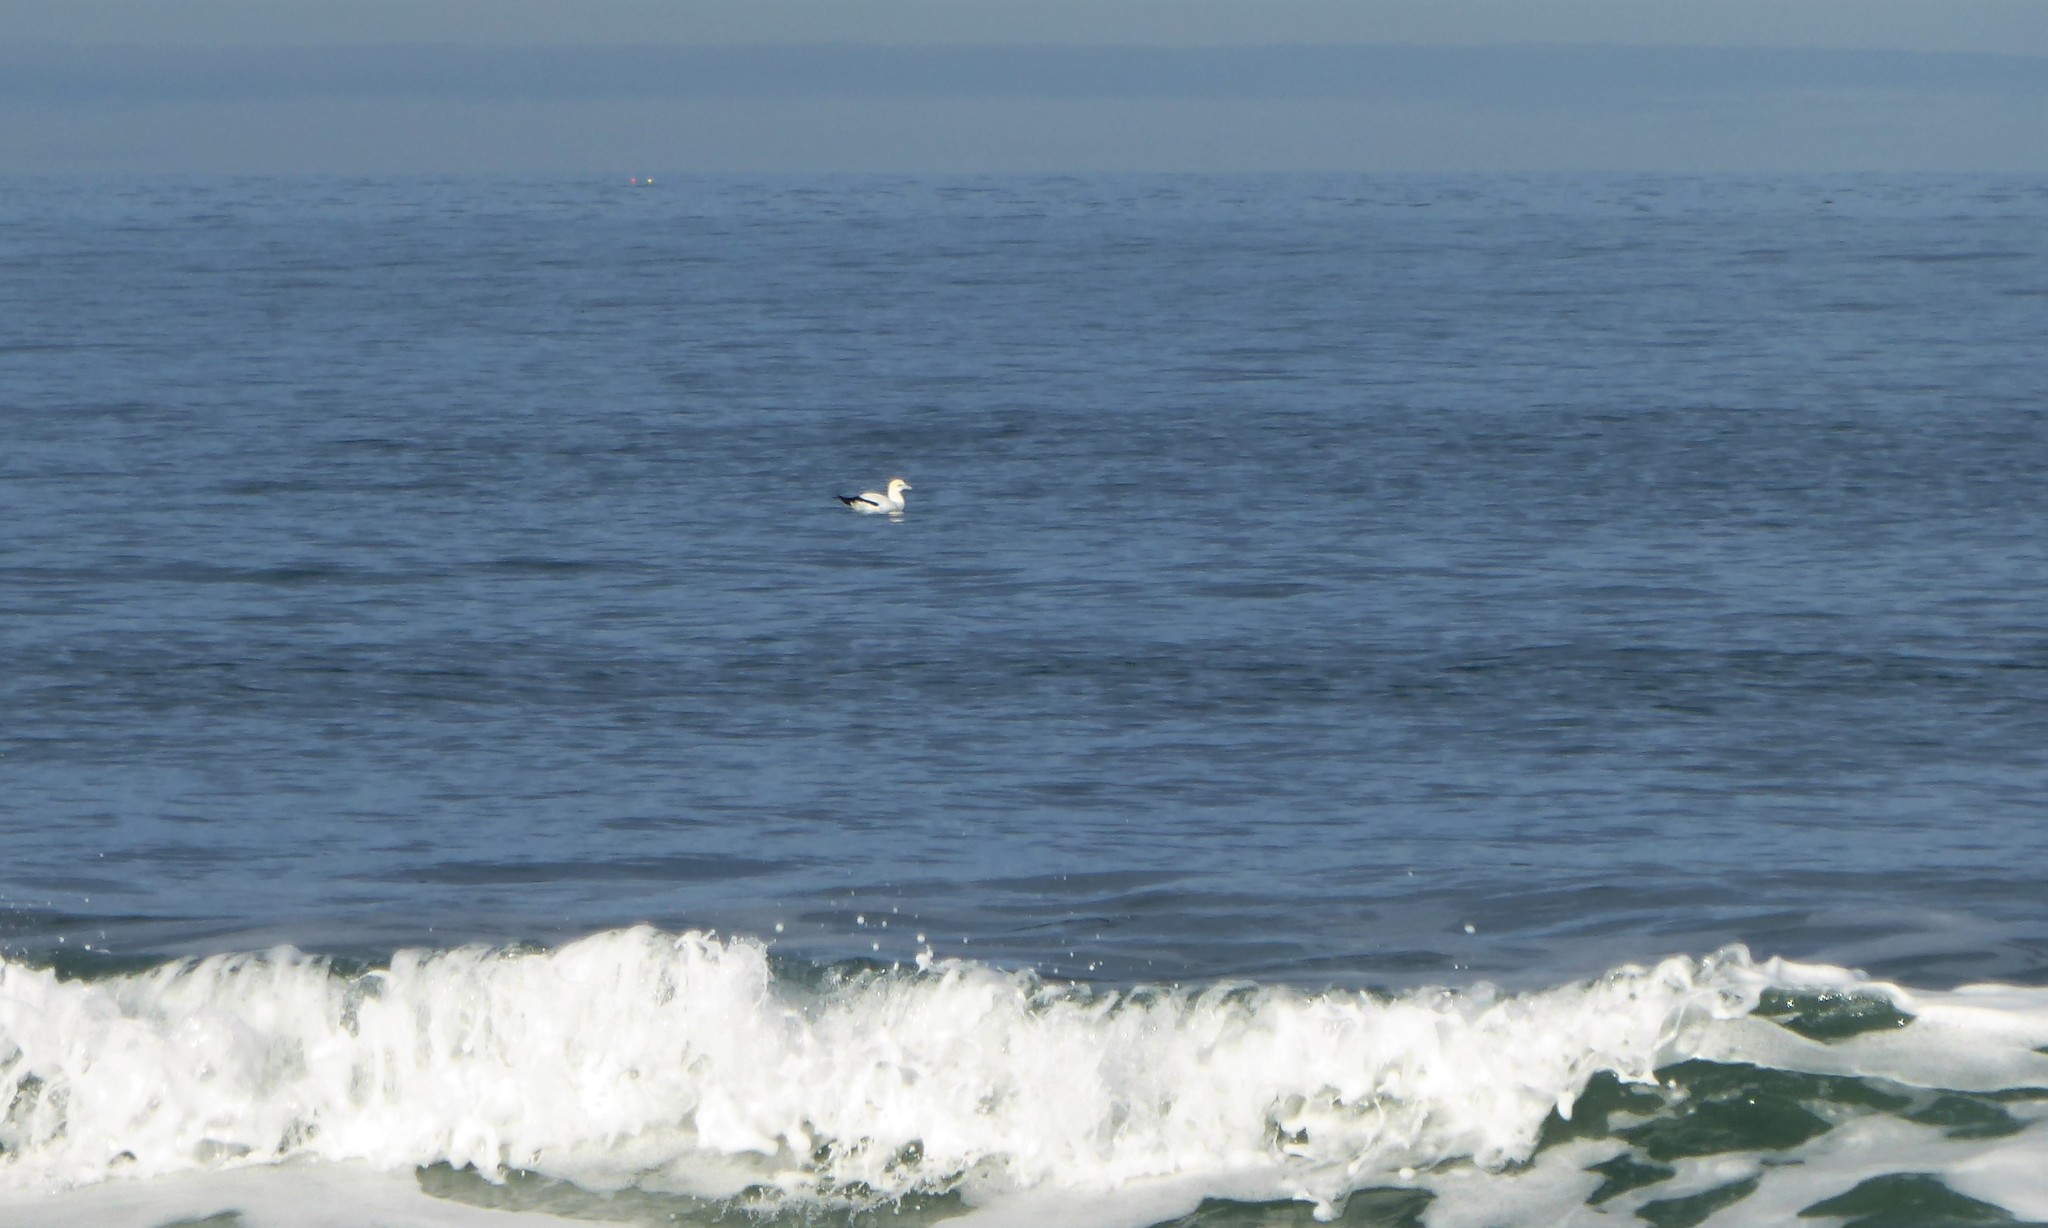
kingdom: Animalia
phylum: Chordata
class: Aves
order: Suliformes
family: Sulidae
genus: Morus
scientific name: Morus serrator
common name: Australasian gannet
